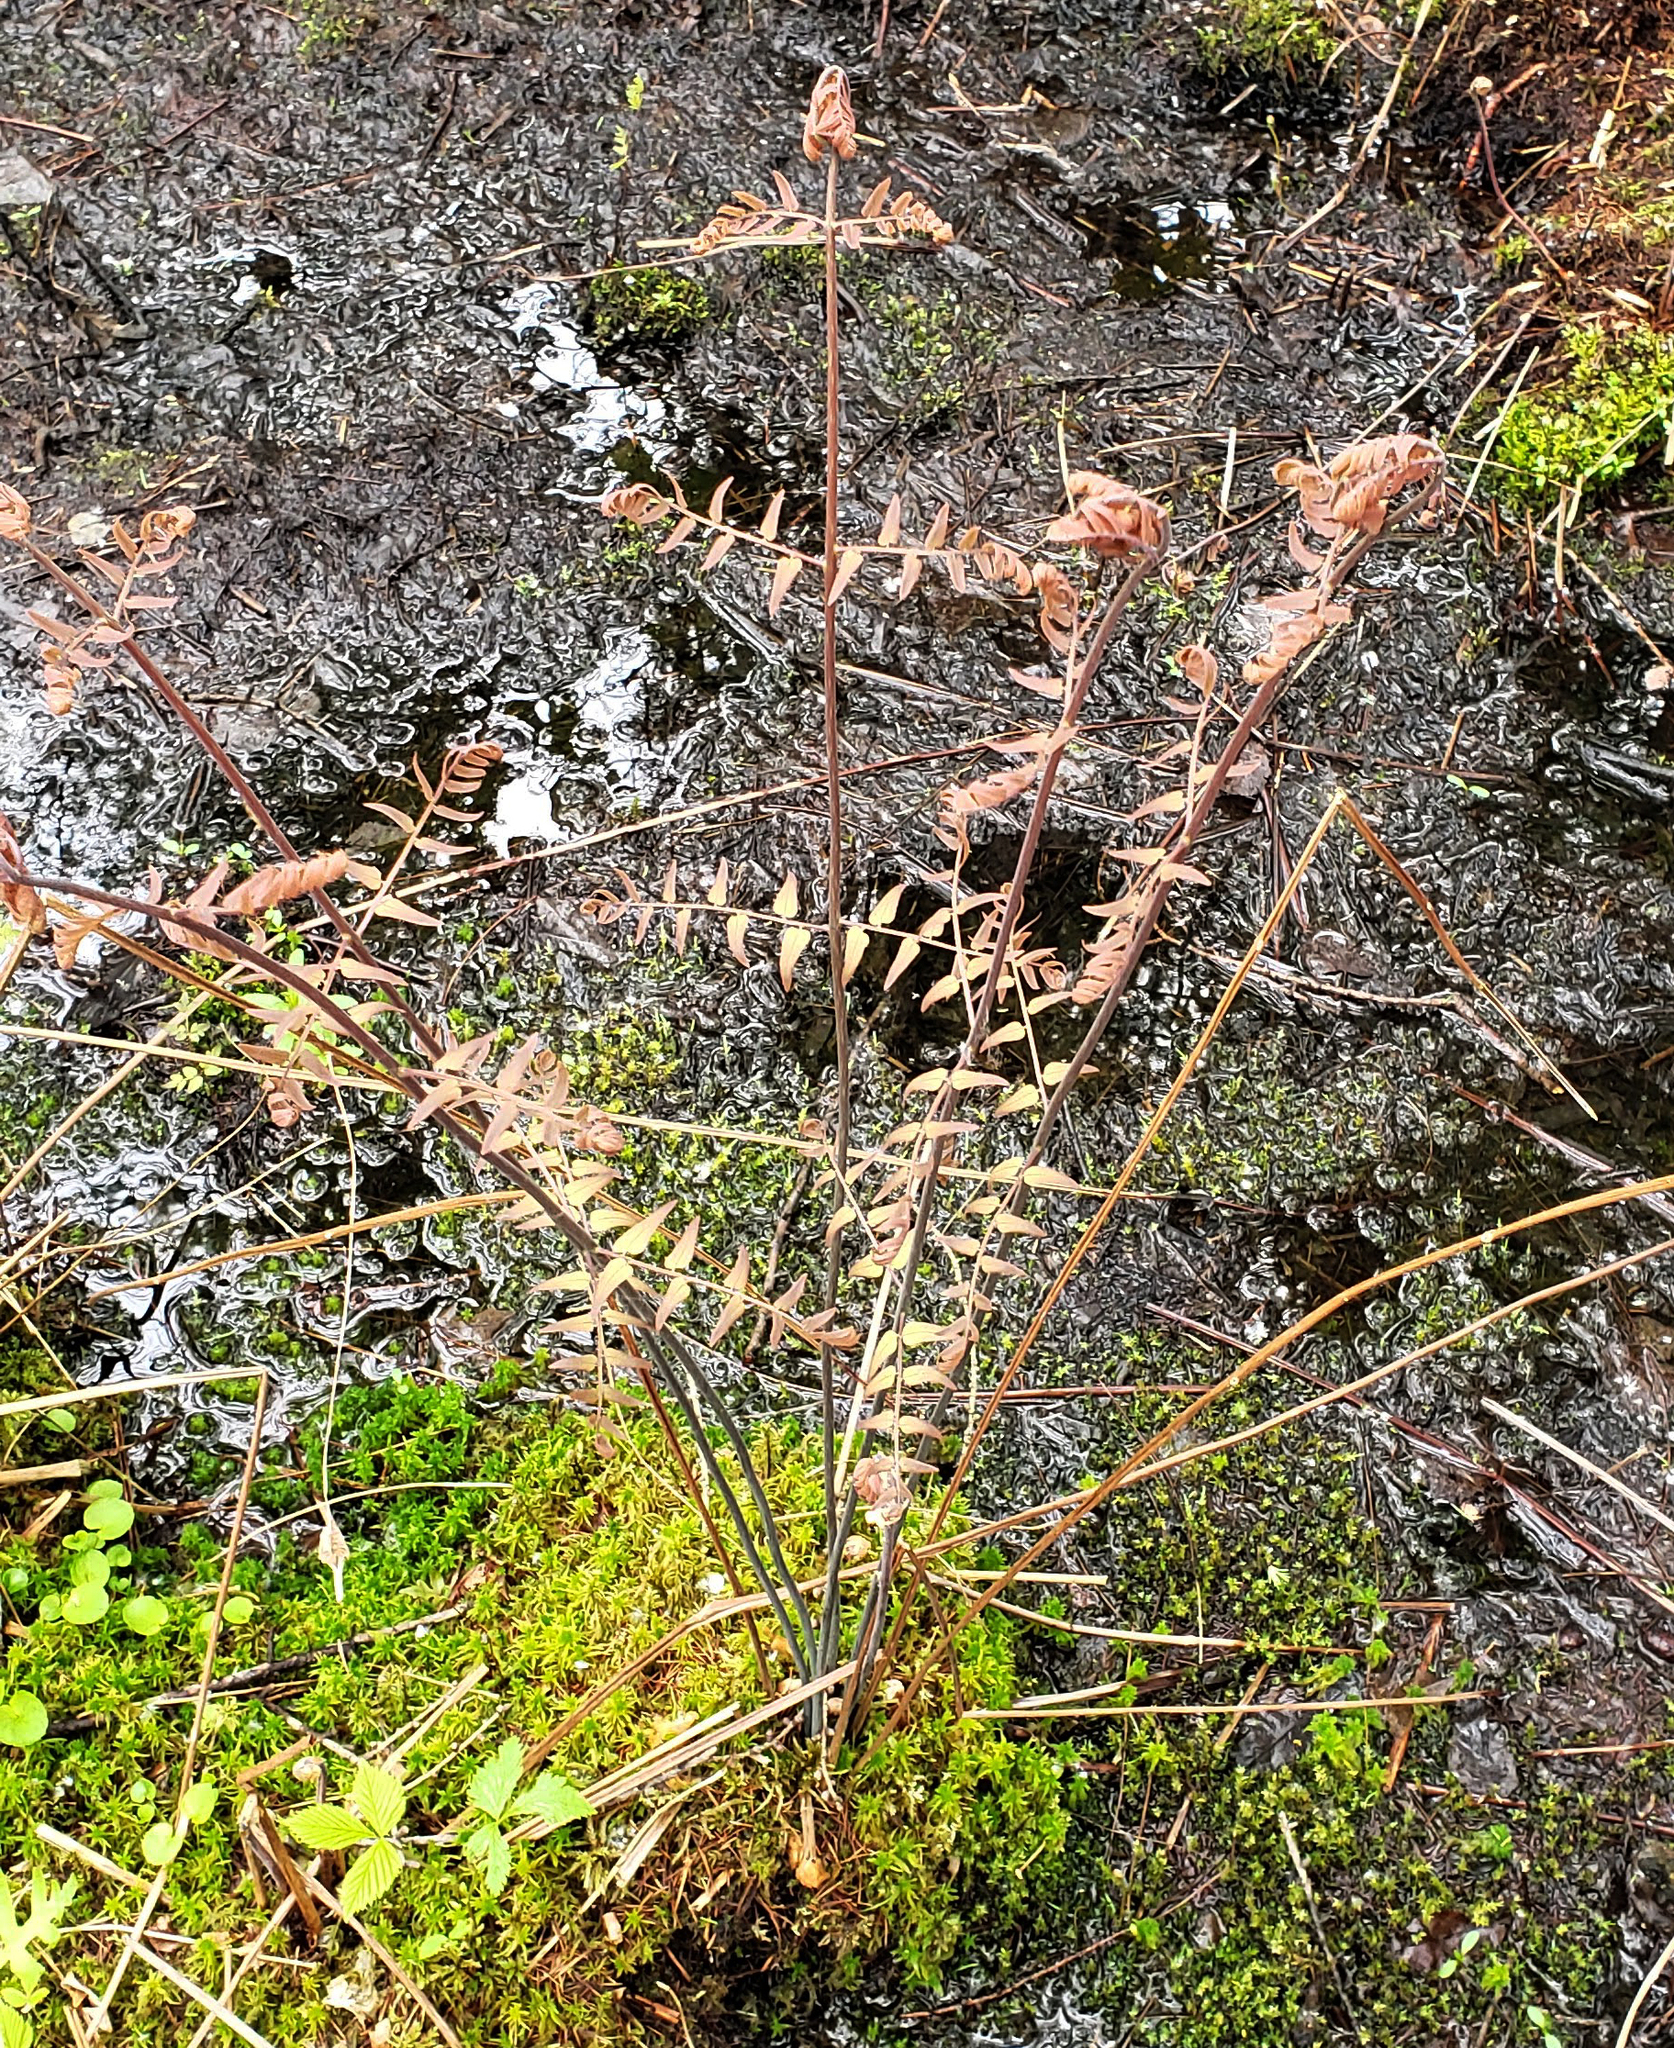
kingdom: Plantae
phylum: Tracheophyta
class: Polypodiopsida
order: Osmundales
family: Osmundaceae
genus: Osmunda
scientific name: Osmunda spectabilis
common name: American royal fern
